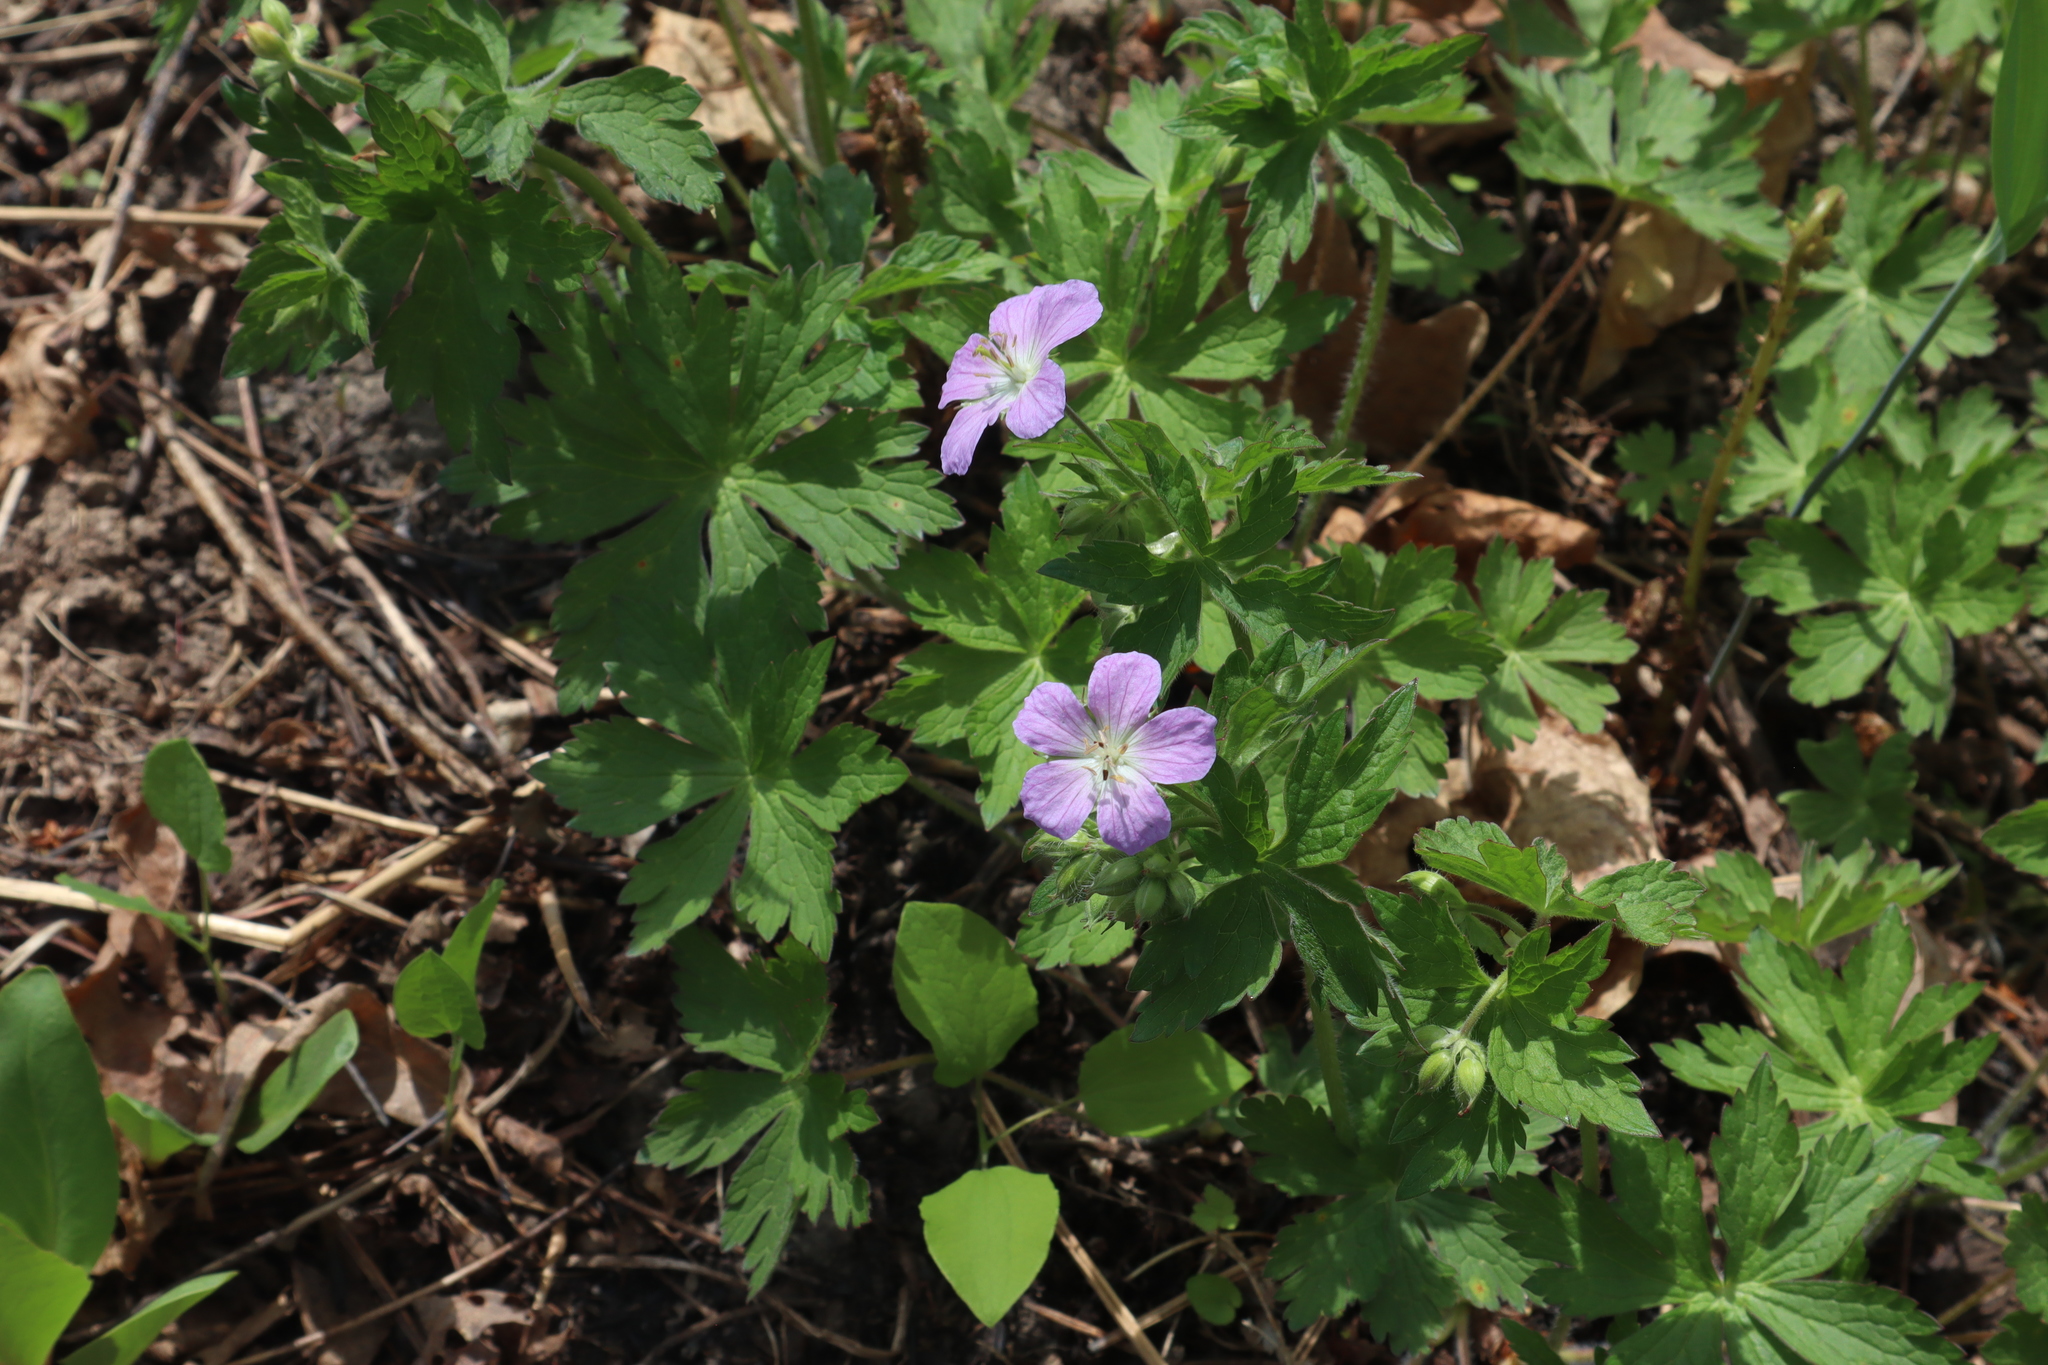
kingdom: Plantae
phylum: Tracheophyta
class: Magnoliopsida
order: Geraniales
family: Geraniaceae
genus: Geranium
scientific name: Geranium maculatum
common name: Spotted geranium
